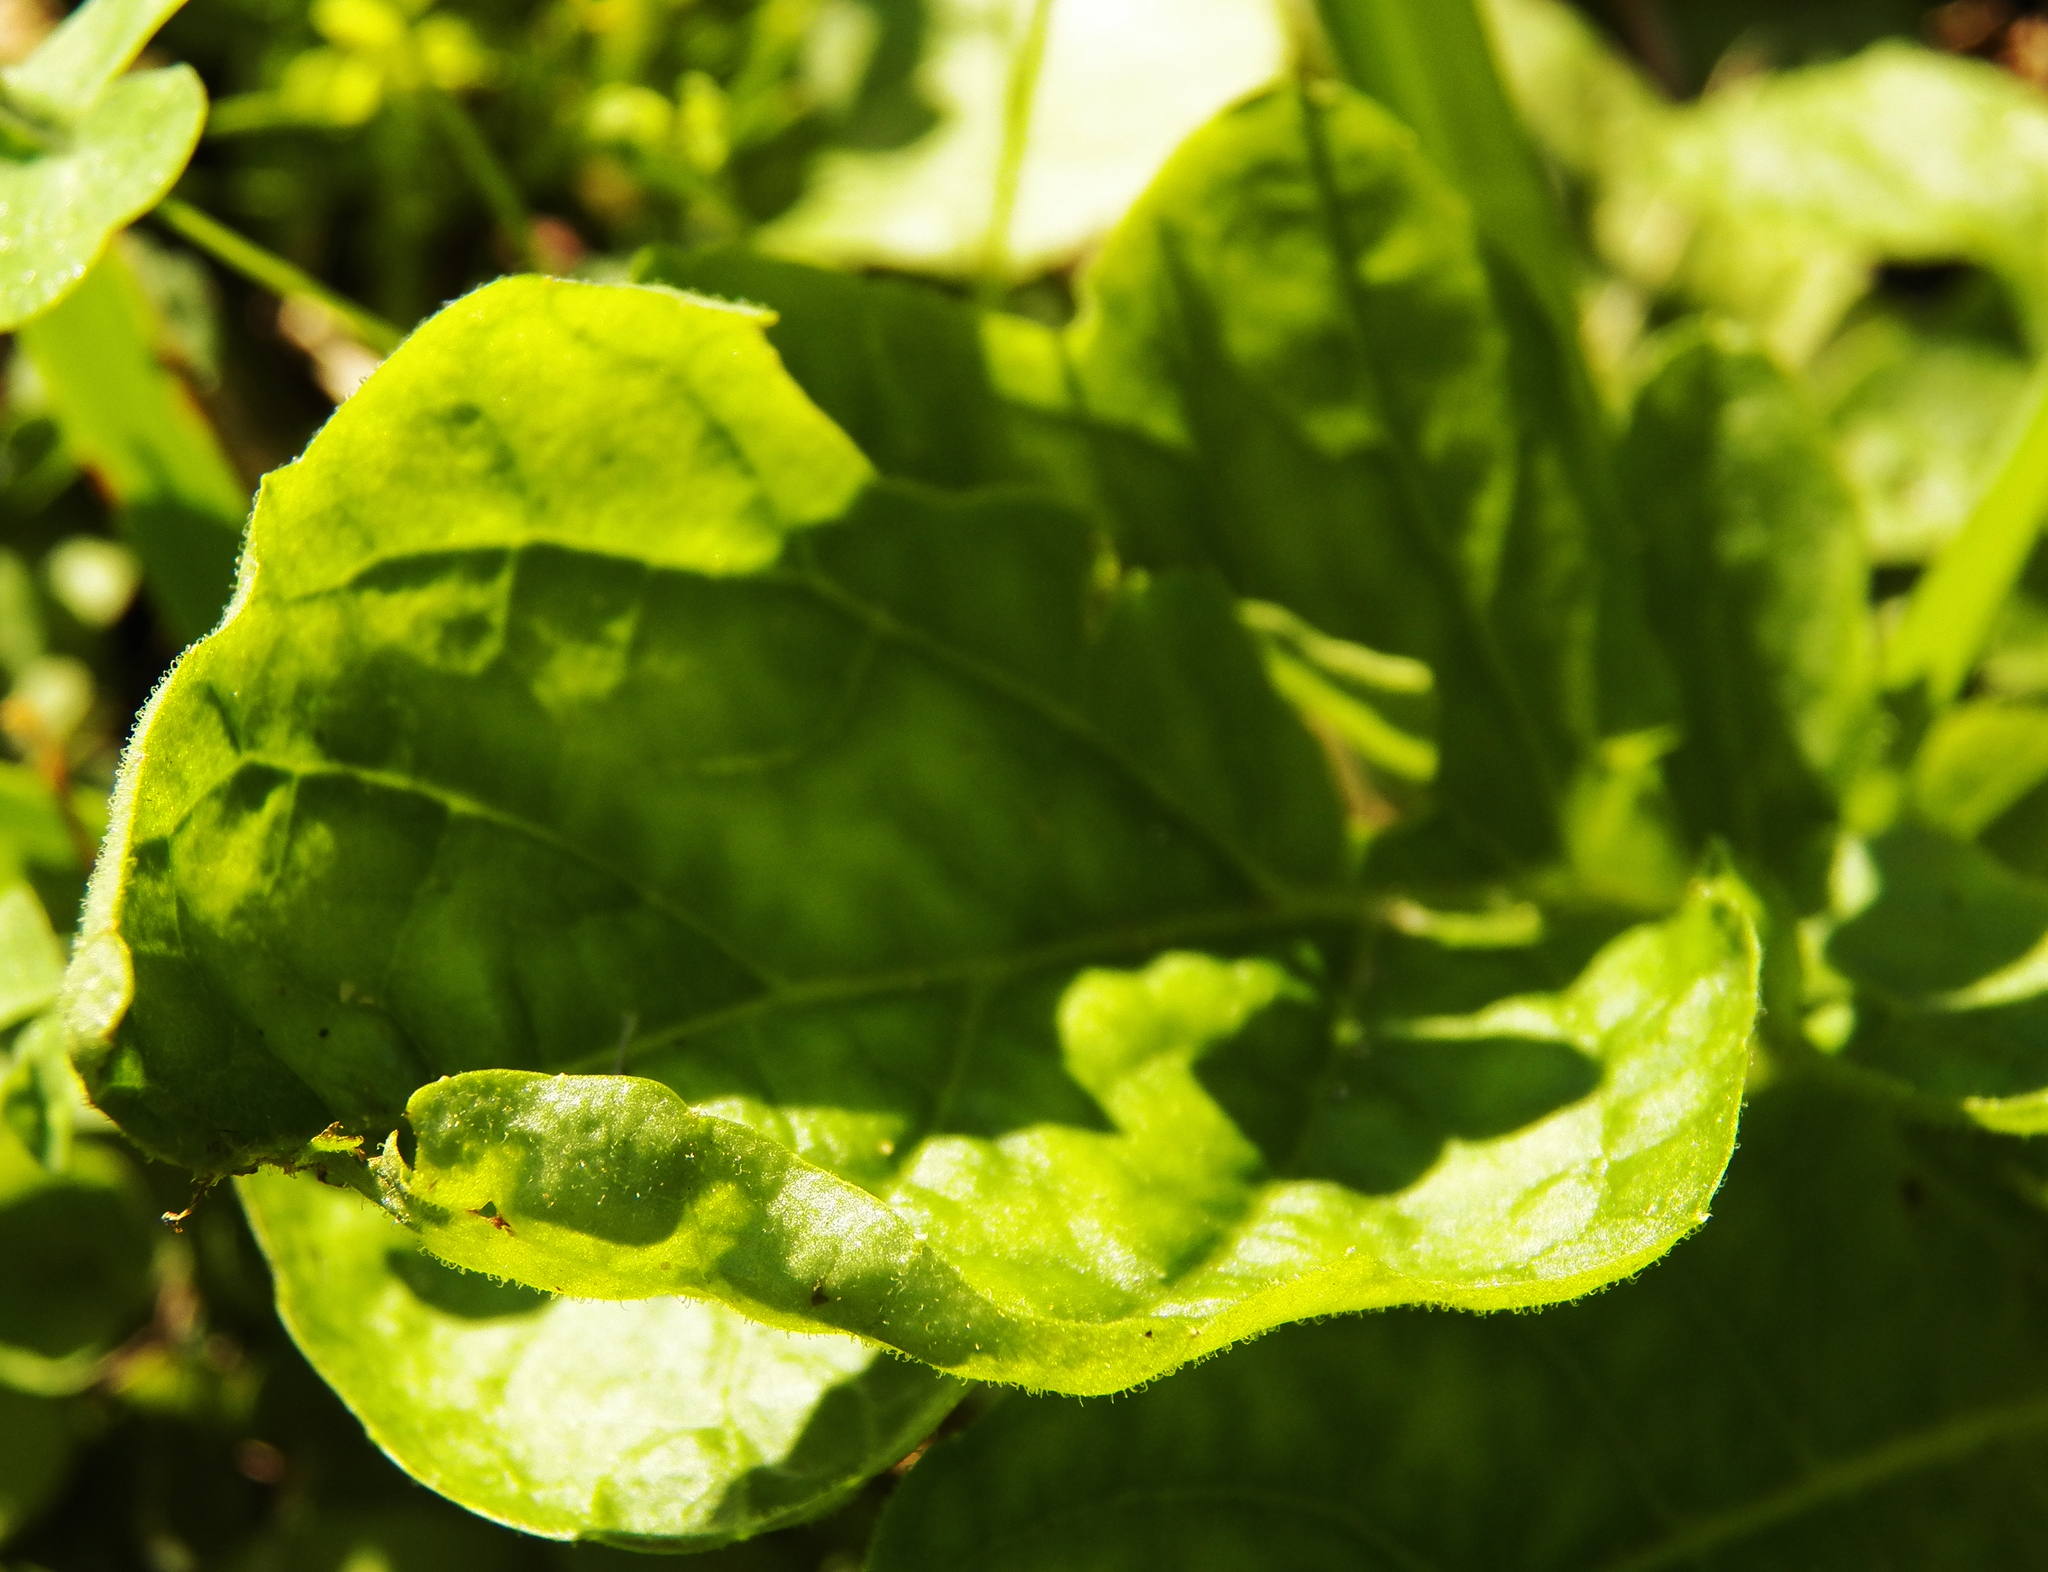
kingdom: Plantae
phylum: Tracheophyta
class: Magnoliopsida
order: Asterales
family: Asteraceae
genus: Youngia
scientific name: Youngia japonica
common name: Oriental false hawksbeard
